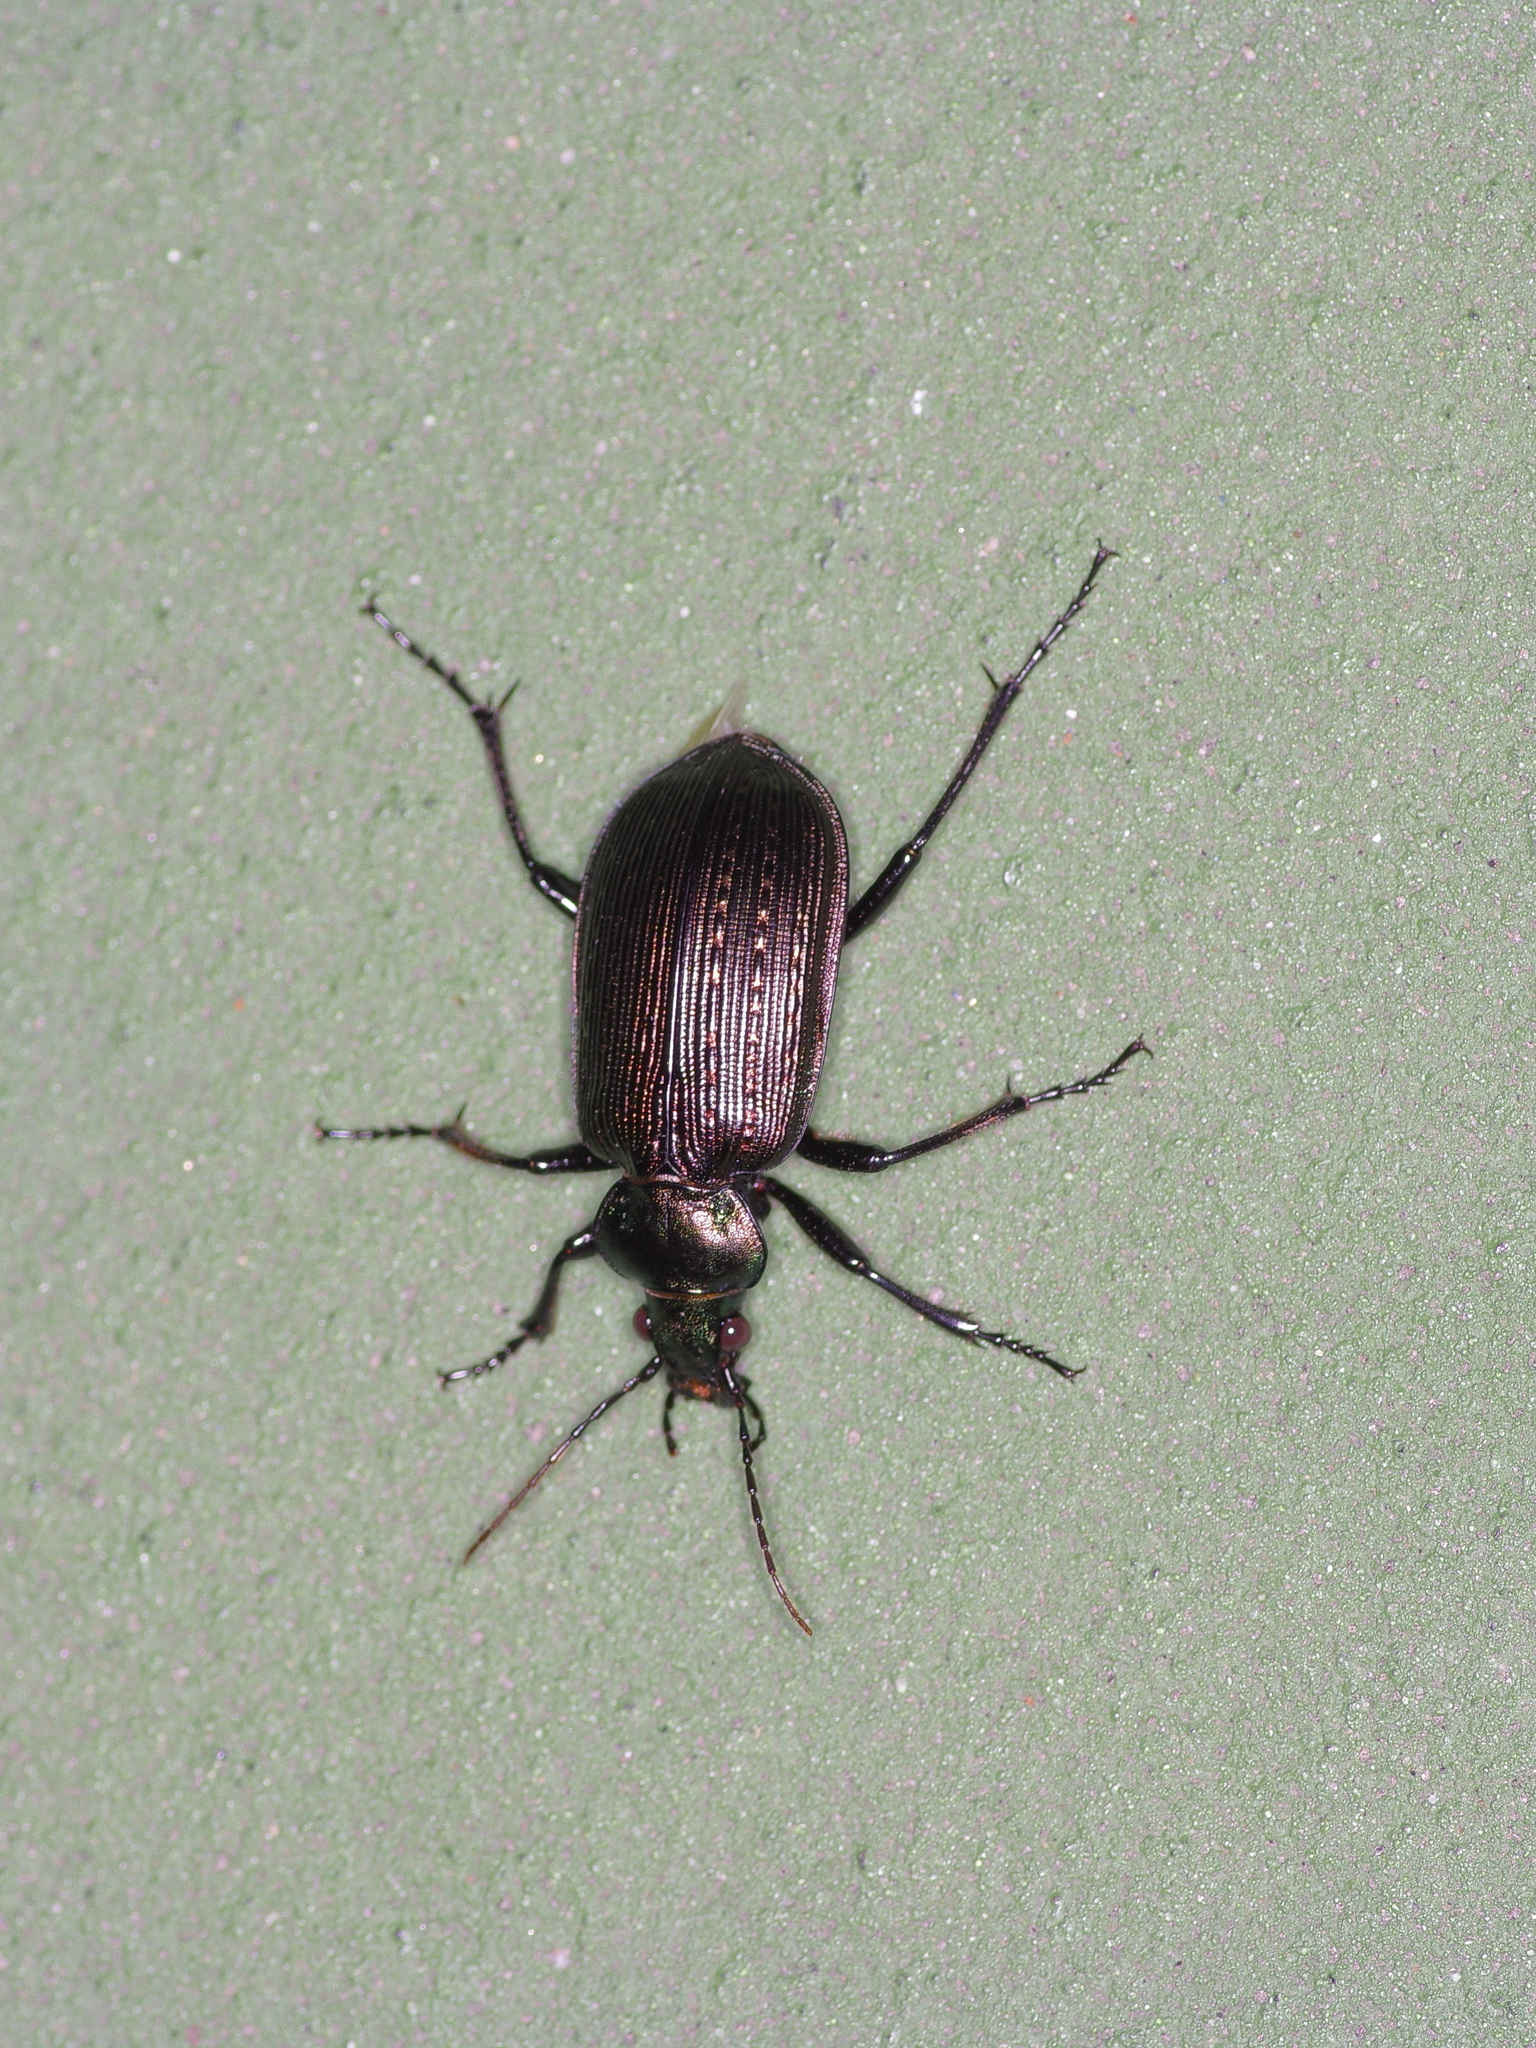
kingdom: Animalia
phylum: Arthropoda
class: Insecta
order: Coleoptera
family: Carabidae
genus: Calosoma
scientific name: Calosoma sayi
